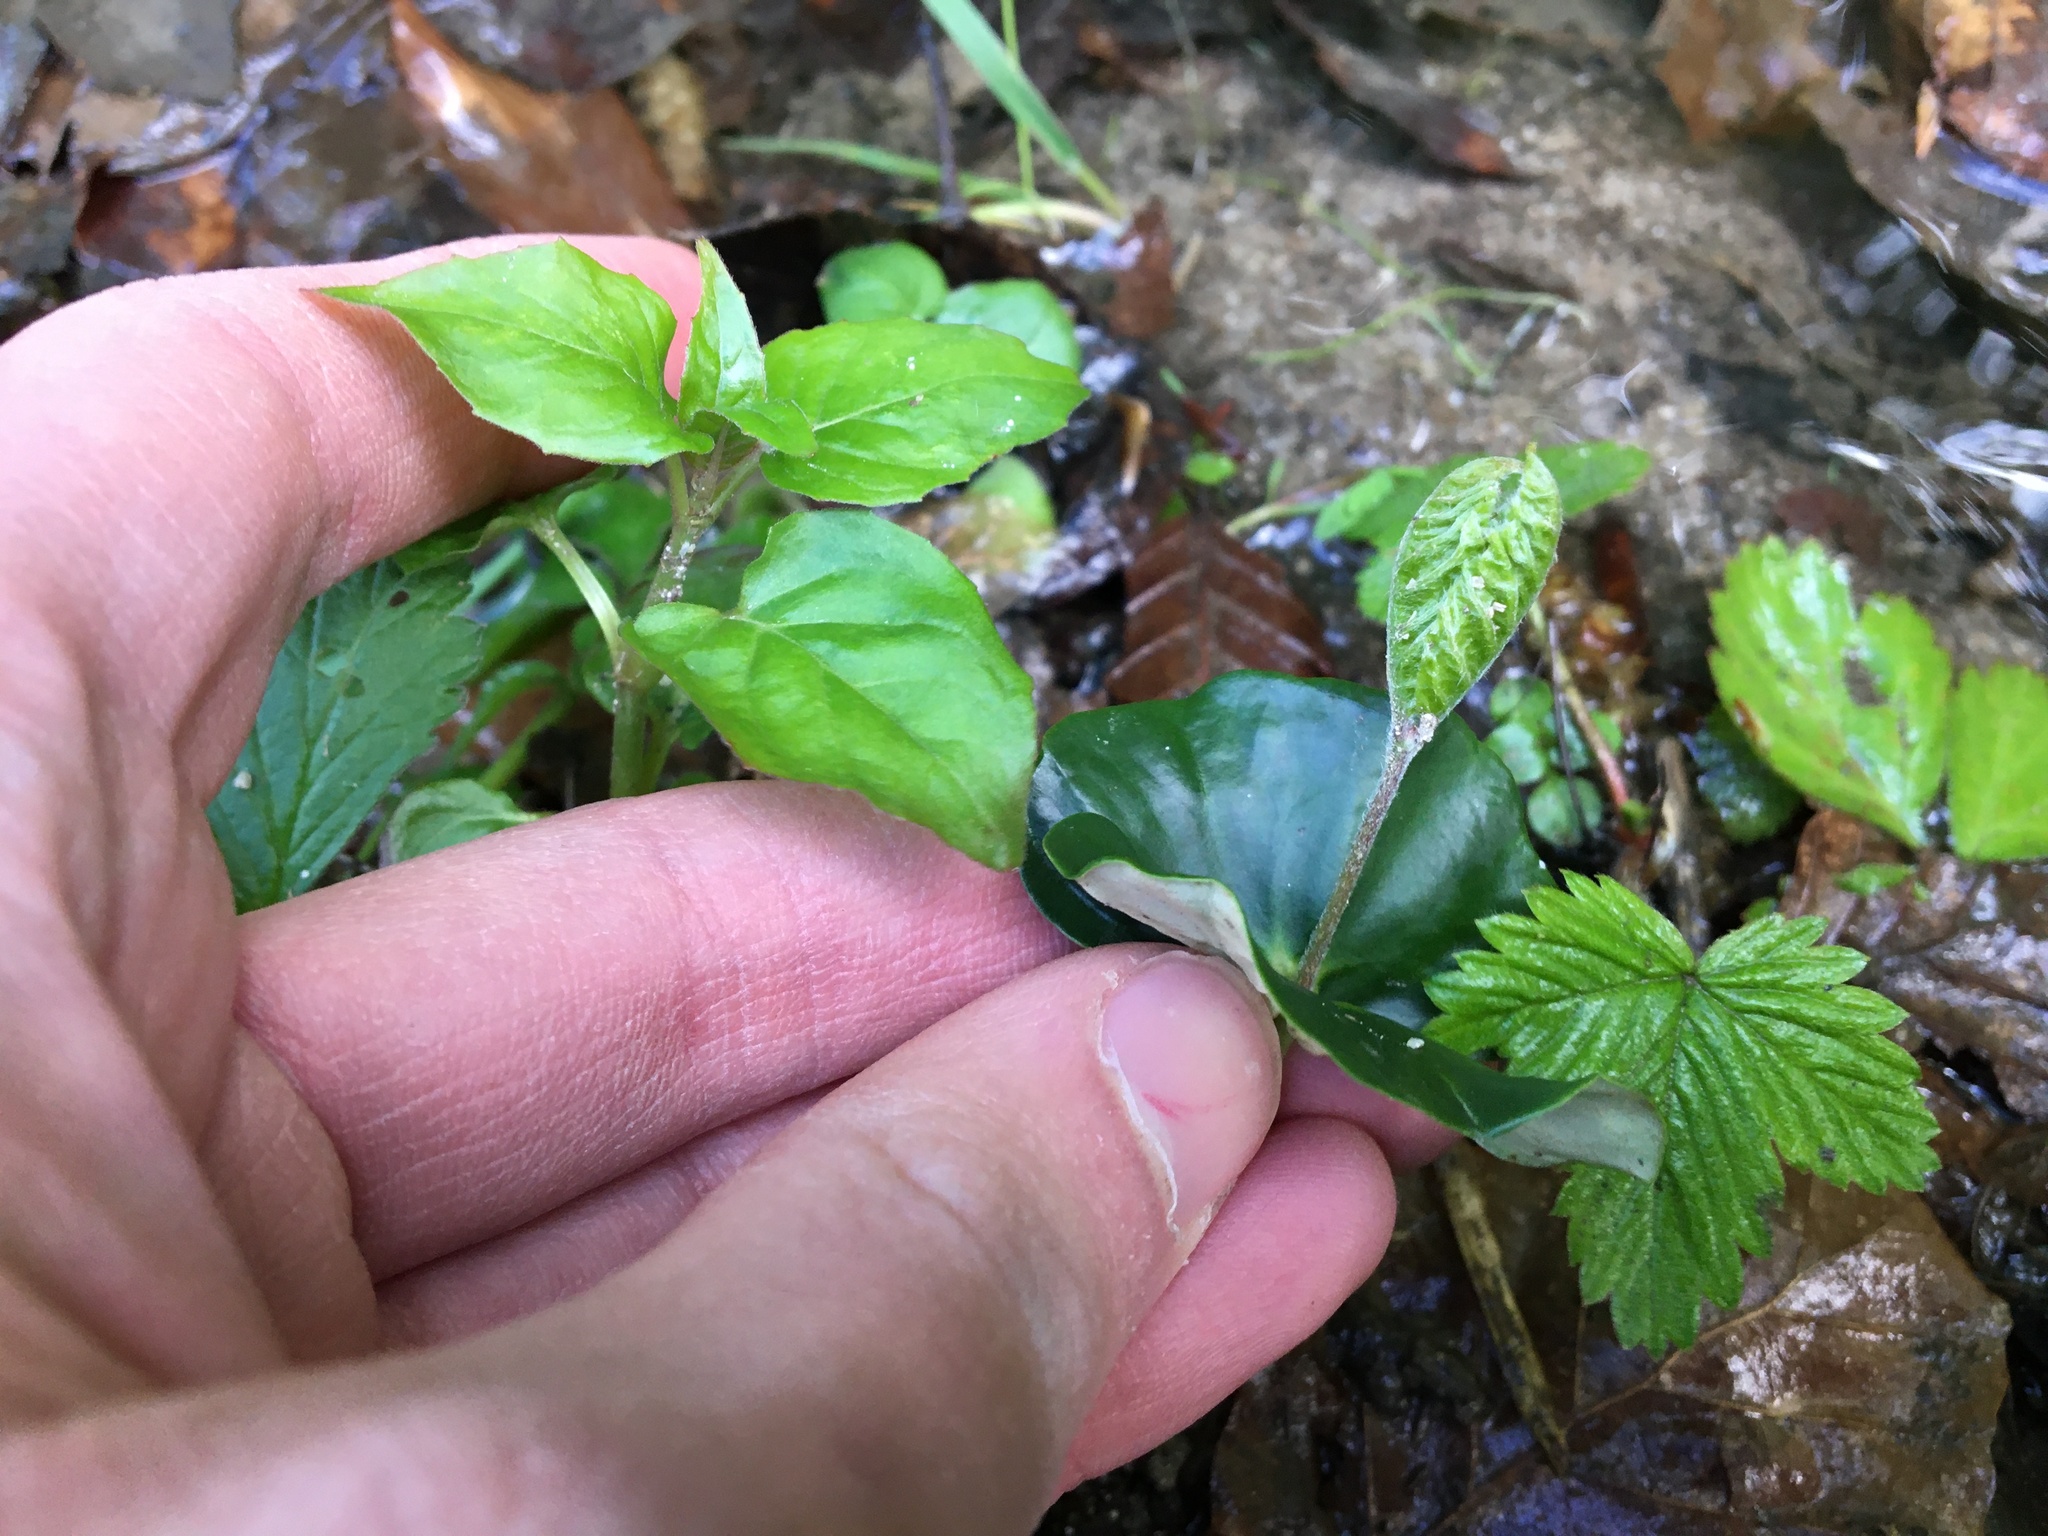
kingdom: Plantae
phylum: Tracheophyta
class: Magnoliopsida
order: Fagales
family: Fagaceae
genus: Fagus
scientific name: Fagus sylvatica
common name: Beech
